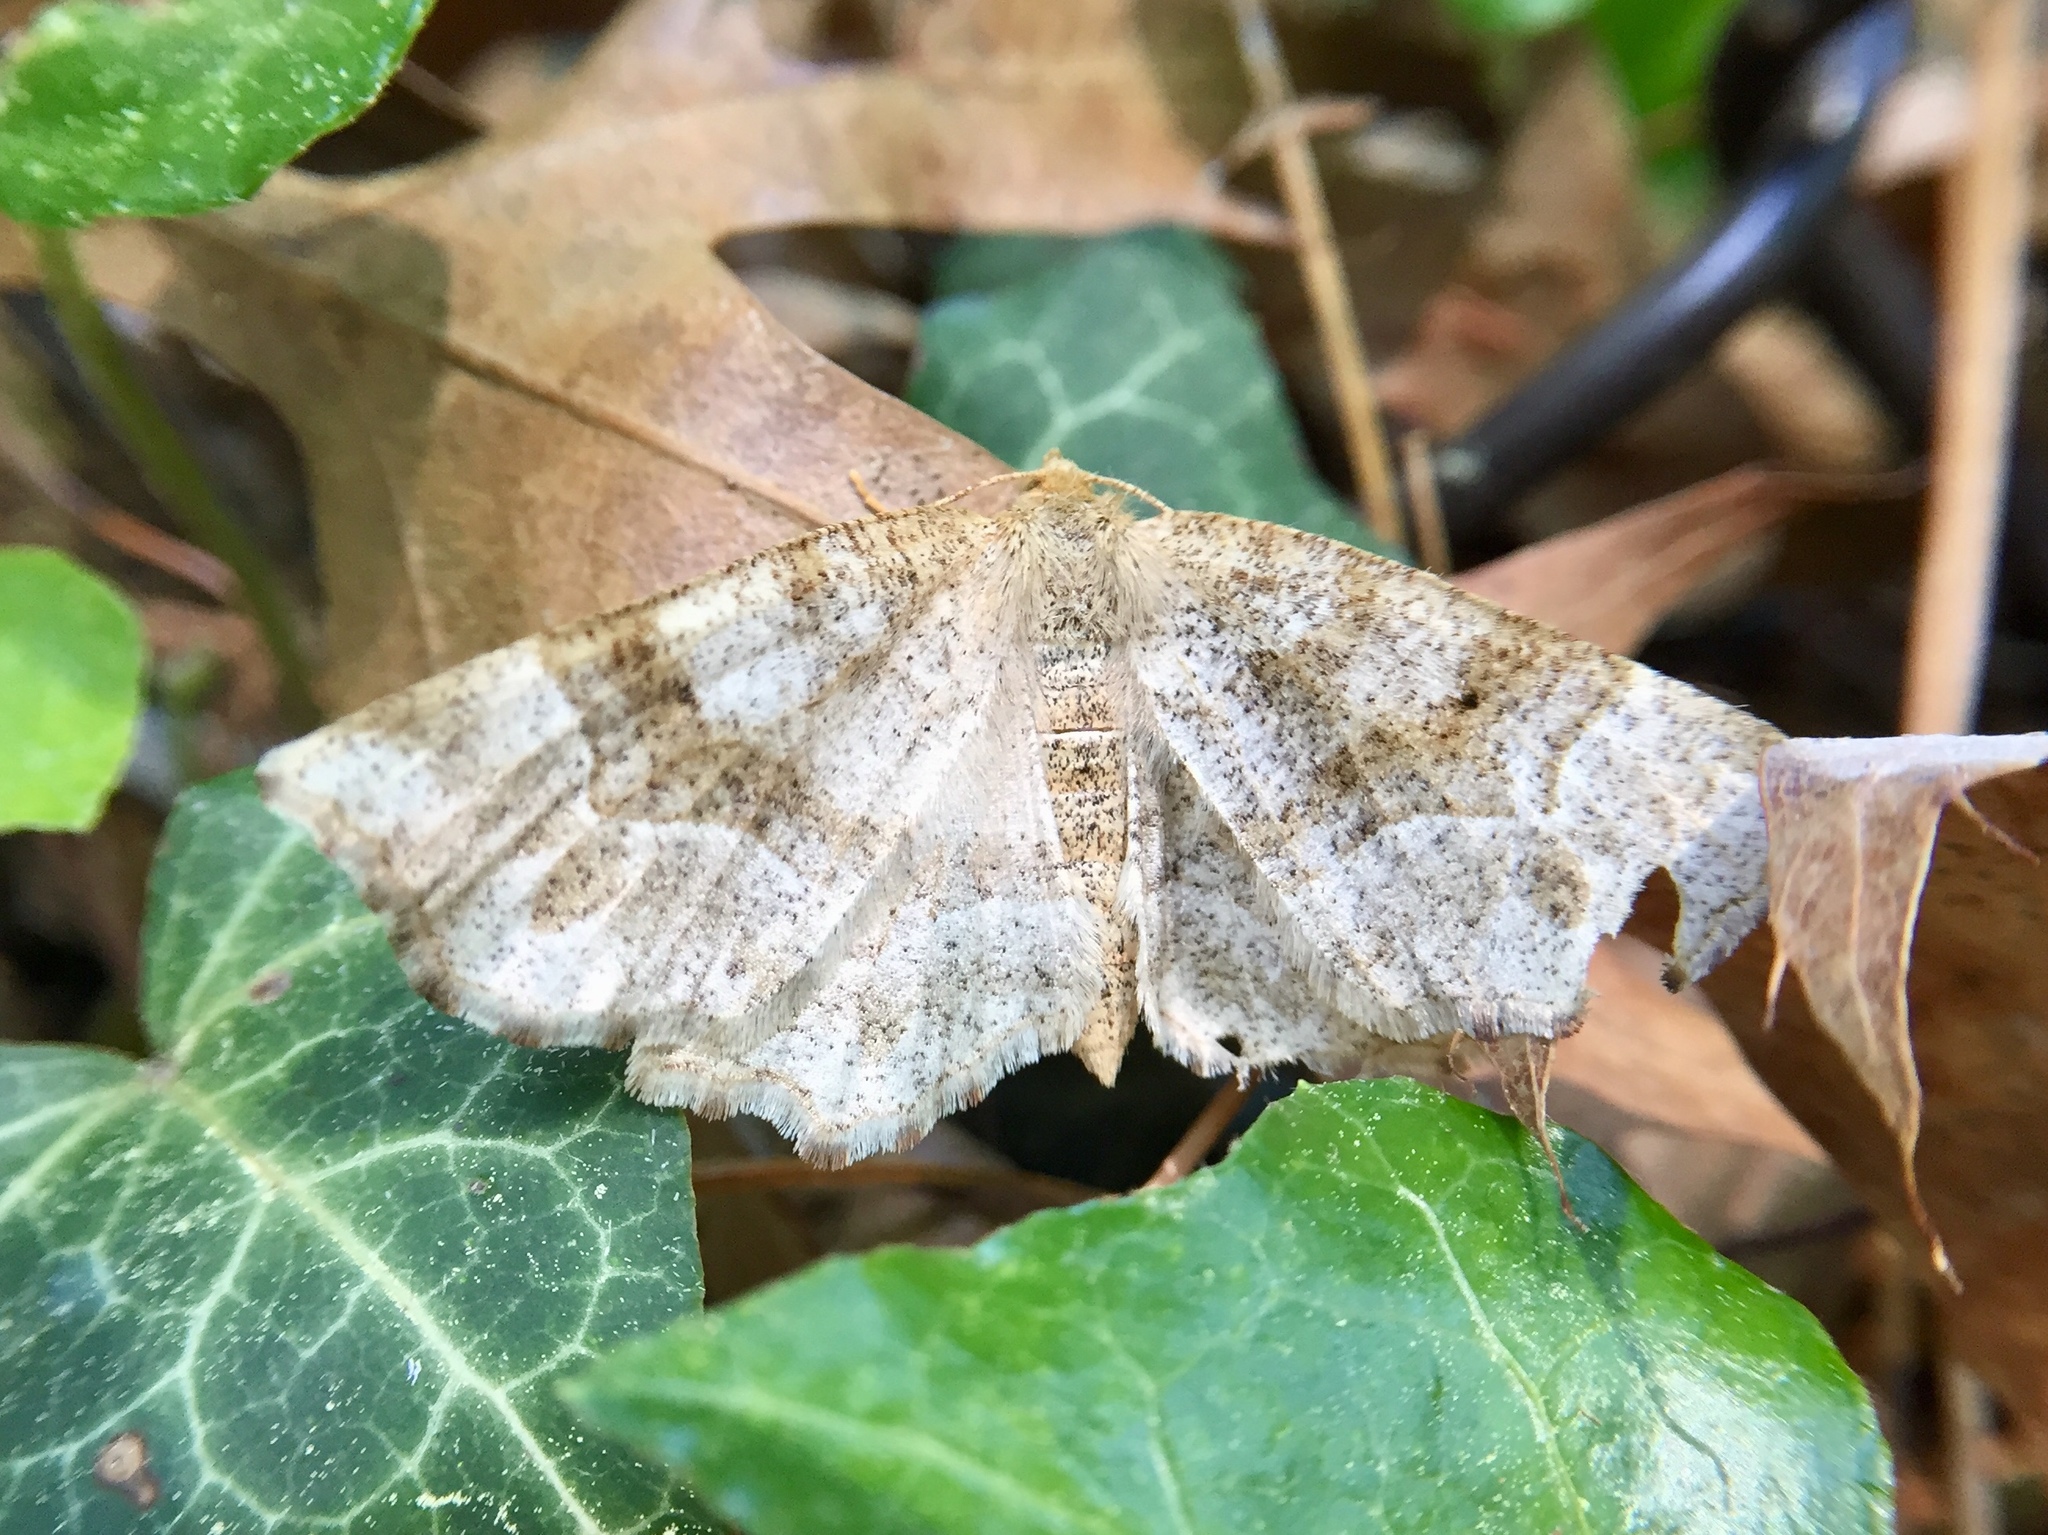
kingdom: Animalia
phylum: Arthropoda
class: Insecta
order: Lepidoptera
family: Geometridae
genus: Metarranthis
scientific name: Metarranthis indeclinata
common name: Pale metarranthis
